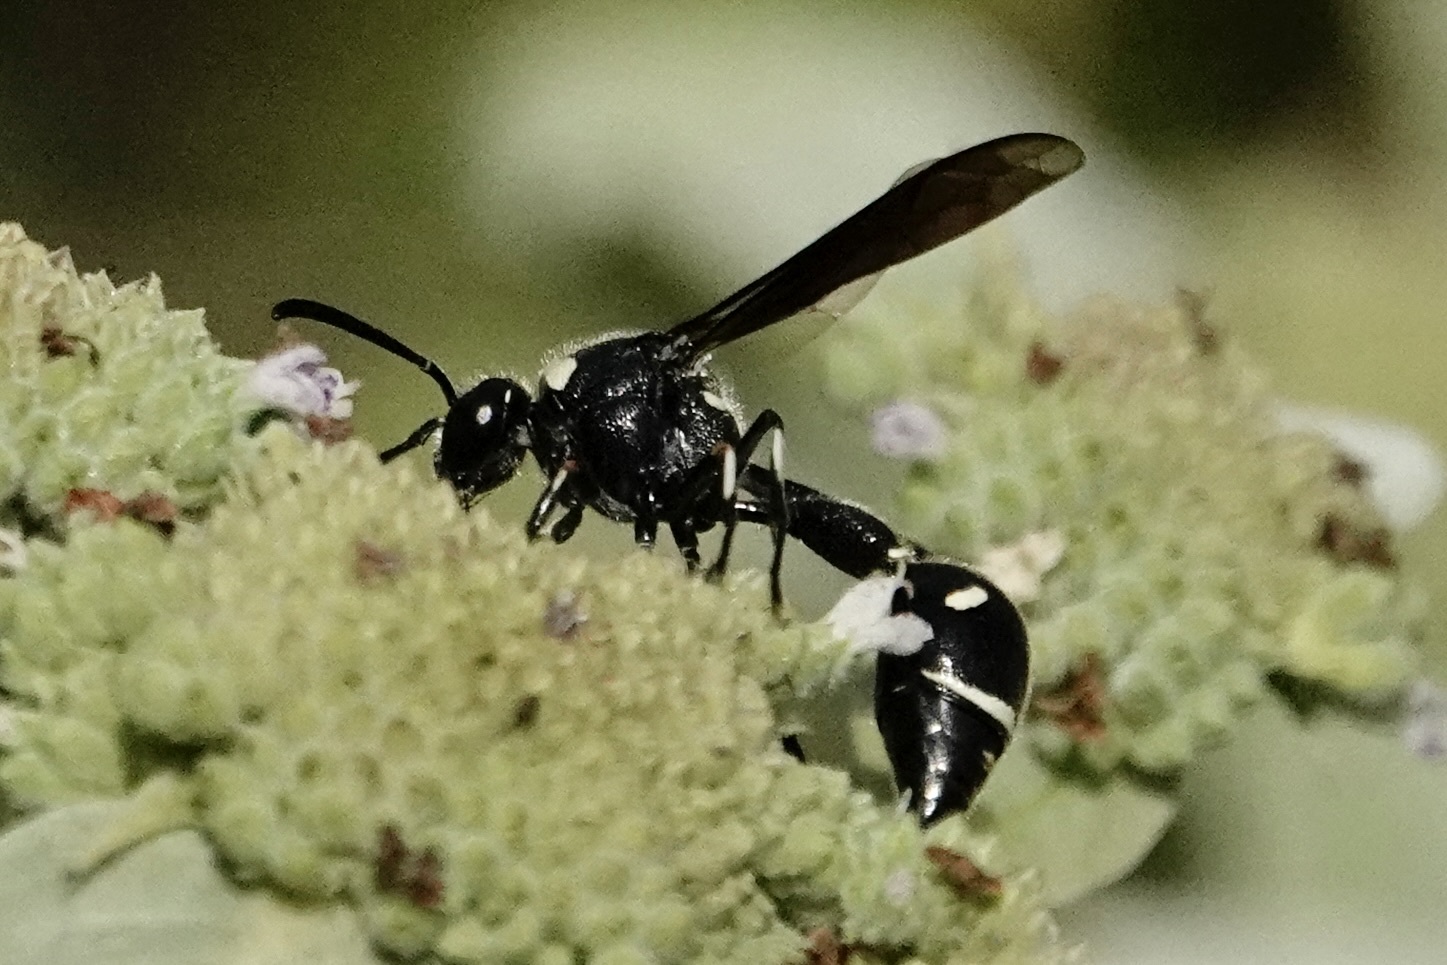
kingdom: Animalia
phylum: Arthropoda
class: Insecta
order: Hymenoptera
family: Vespidae
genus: Eumenes
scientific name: Eumenes fraternus
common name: Fraternal potter wasp
